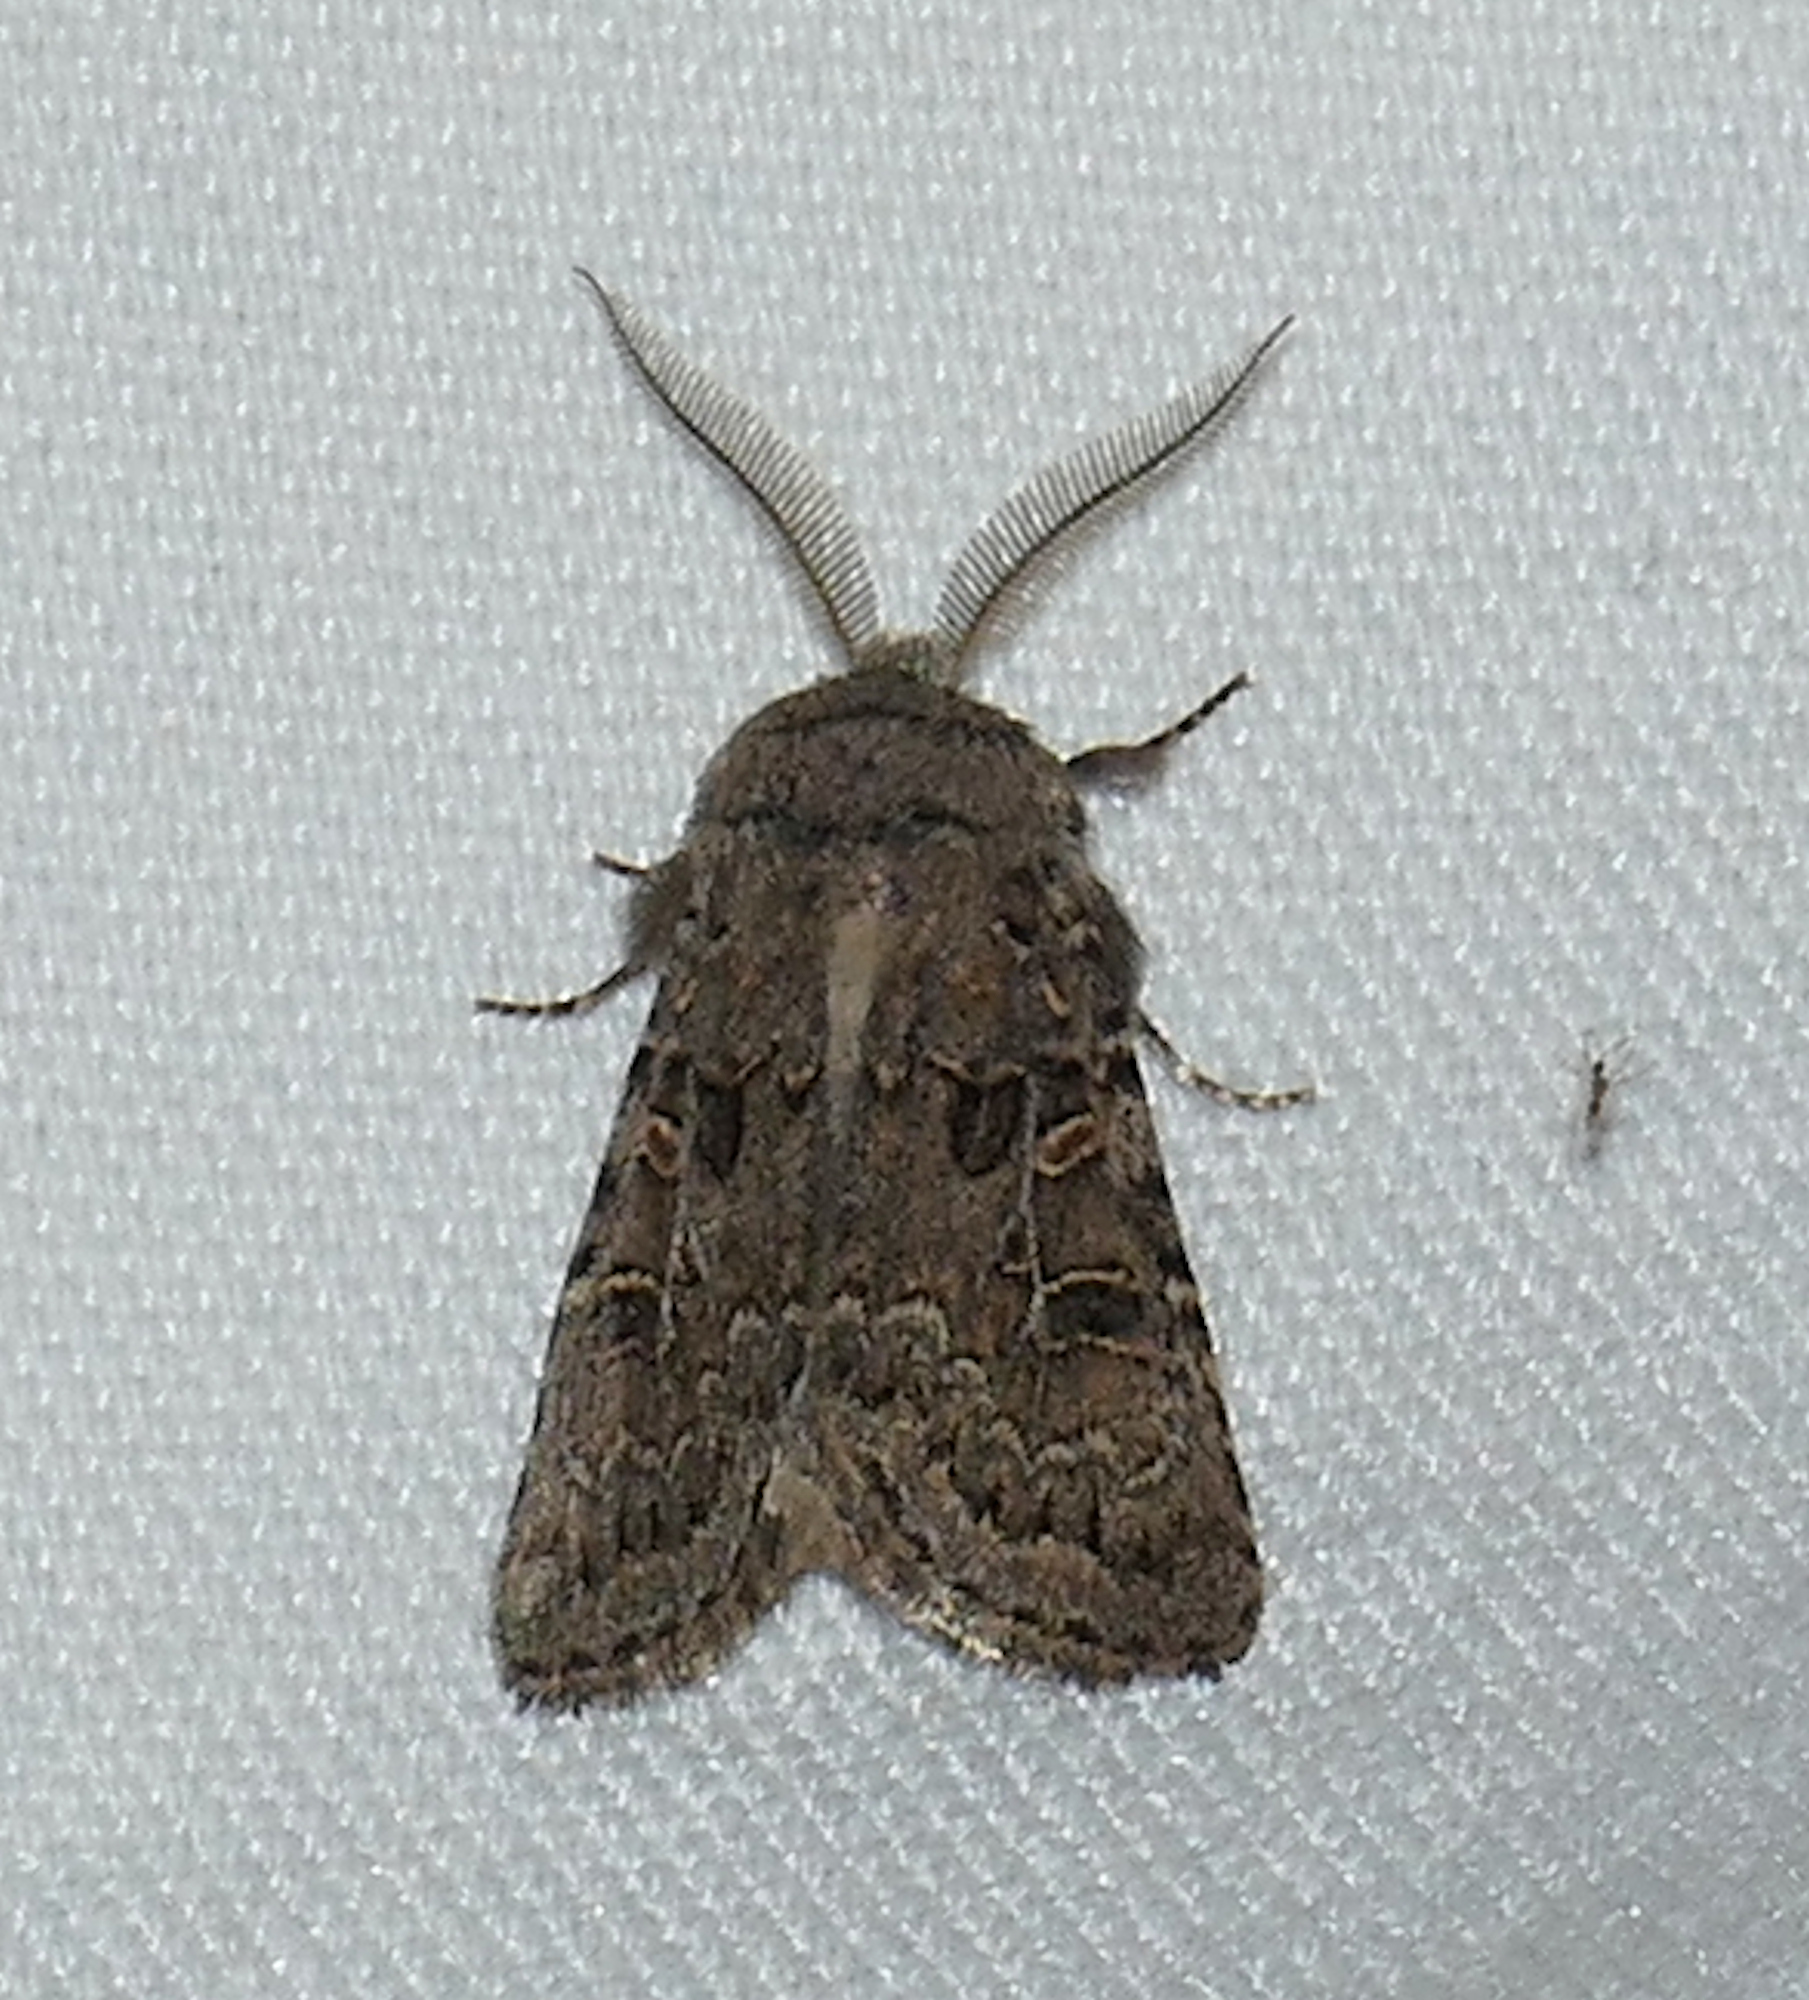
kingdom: Animalia
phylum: Arthropoda
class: Insecta
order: Lepidoptera
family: Noctuidae
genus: Spodoptera
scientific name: Spodoptera hipparis
